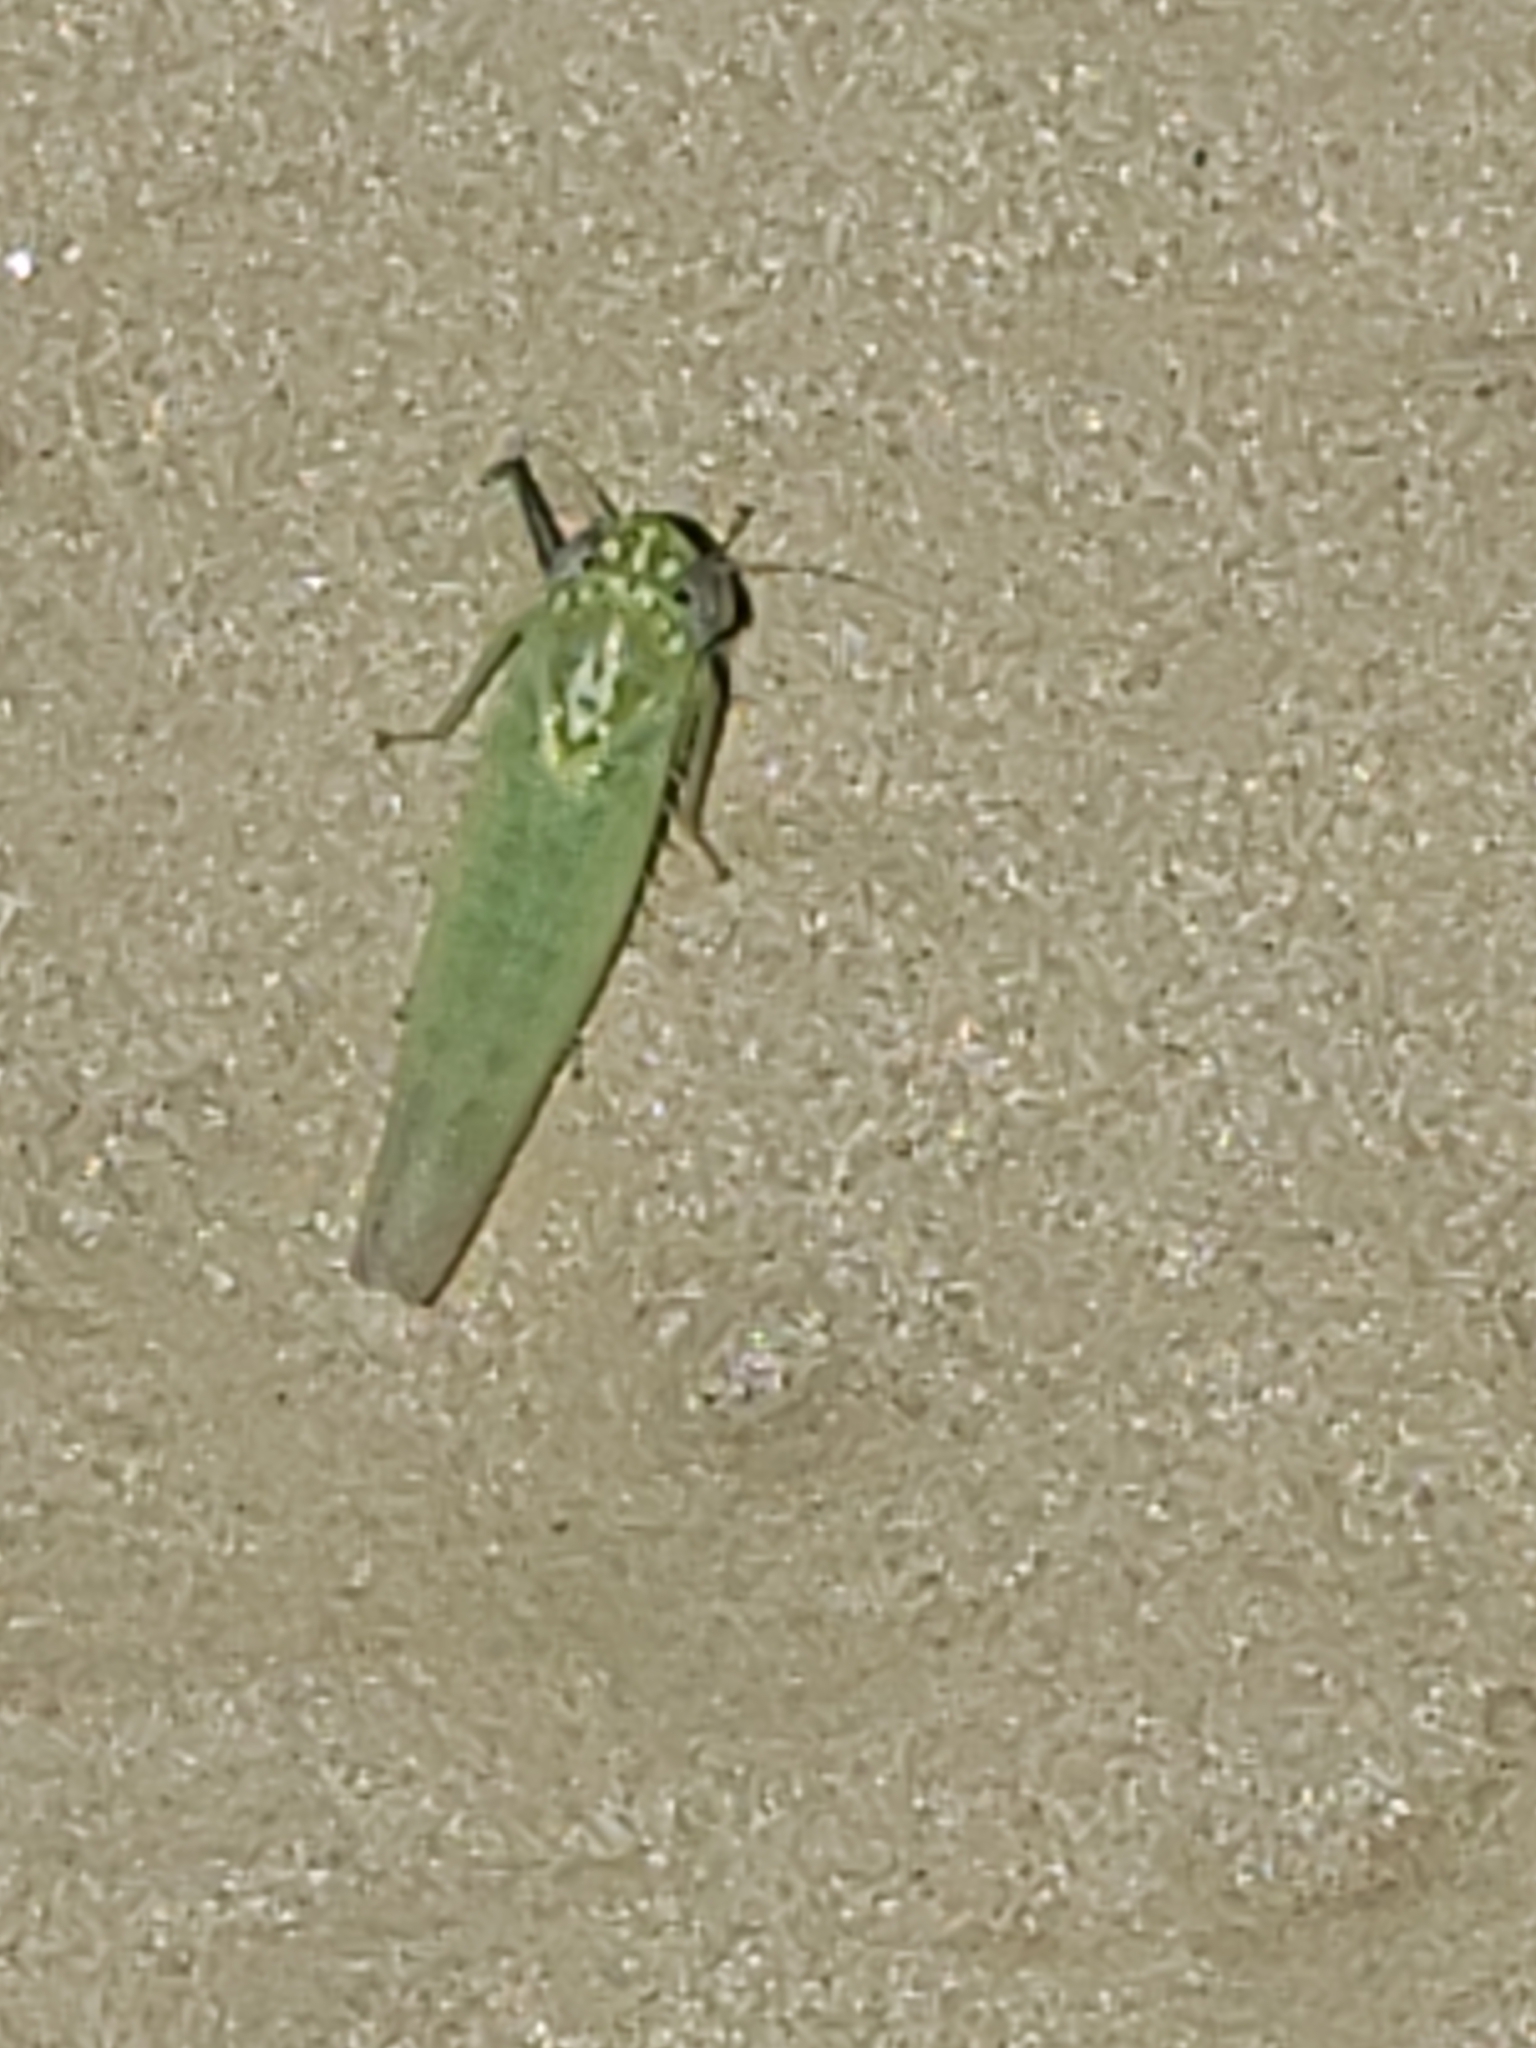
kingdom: Animalia
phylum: Arthropoda
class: Insecta
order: Hemiptera
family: Cicadellidae
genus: Empoasca
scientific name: Empoasca fabae
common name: Potato leafhopper
